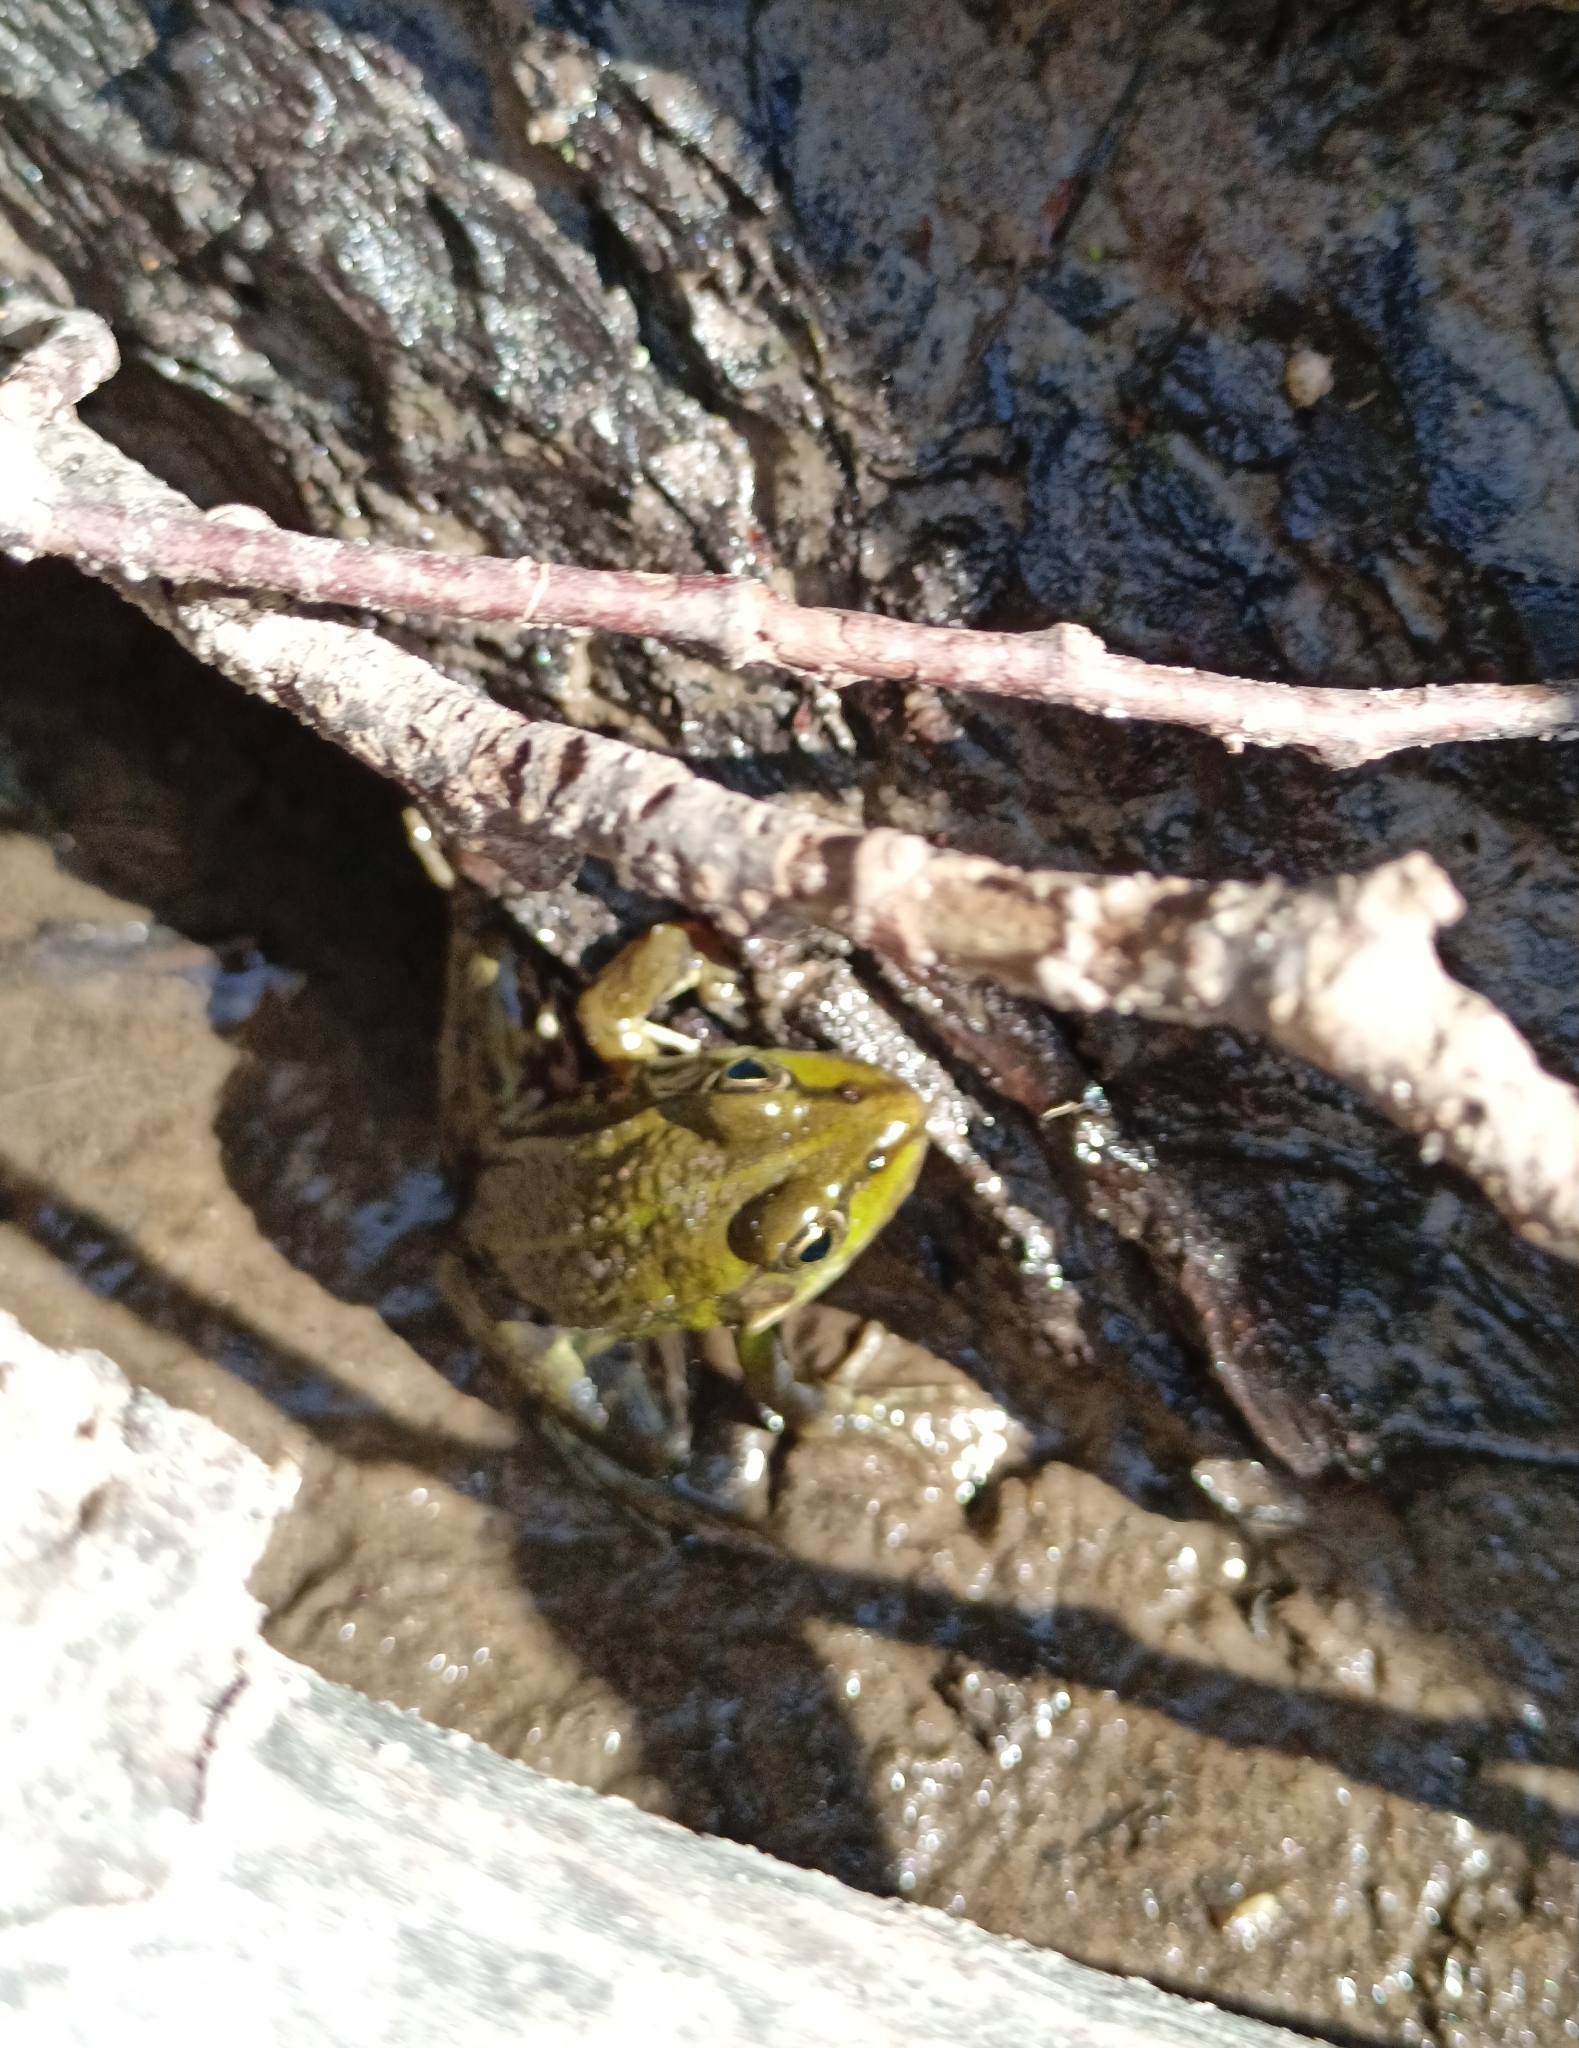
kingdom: Animalia
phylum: Chordata
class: Amphibia
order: Anura
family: Ranidae
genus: Pelophylax
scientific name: Pelophylax lessonae
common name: Pool frog
